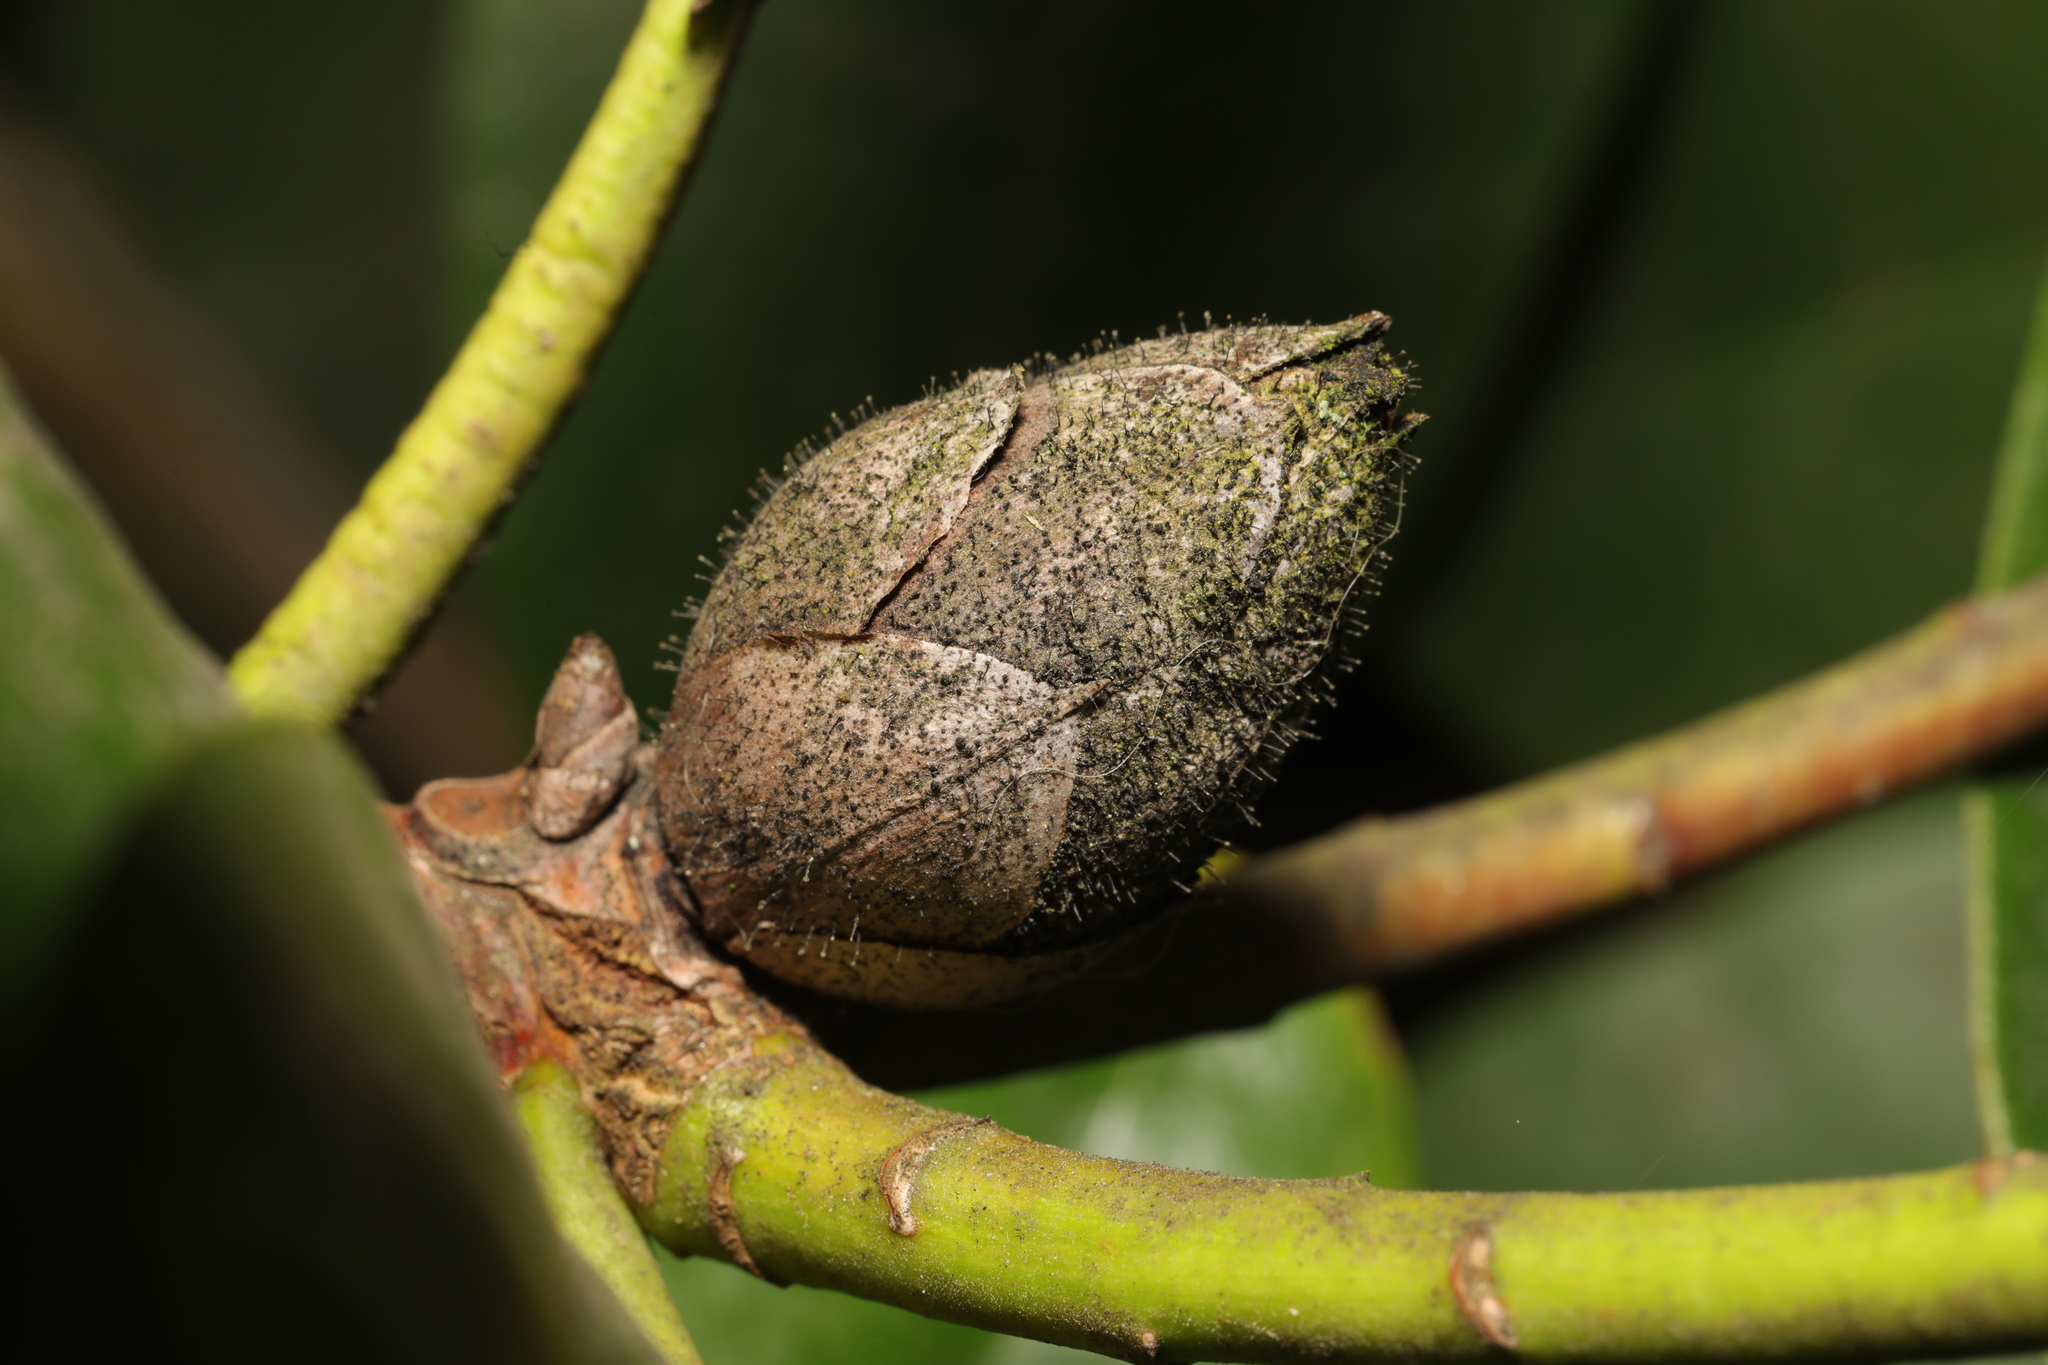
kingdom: Fungi
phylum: Ascomycota
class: Dothideomycetes
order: Pleosporales
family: Melanommataceae
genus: Seifertia
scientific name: Seifertia azaleae
